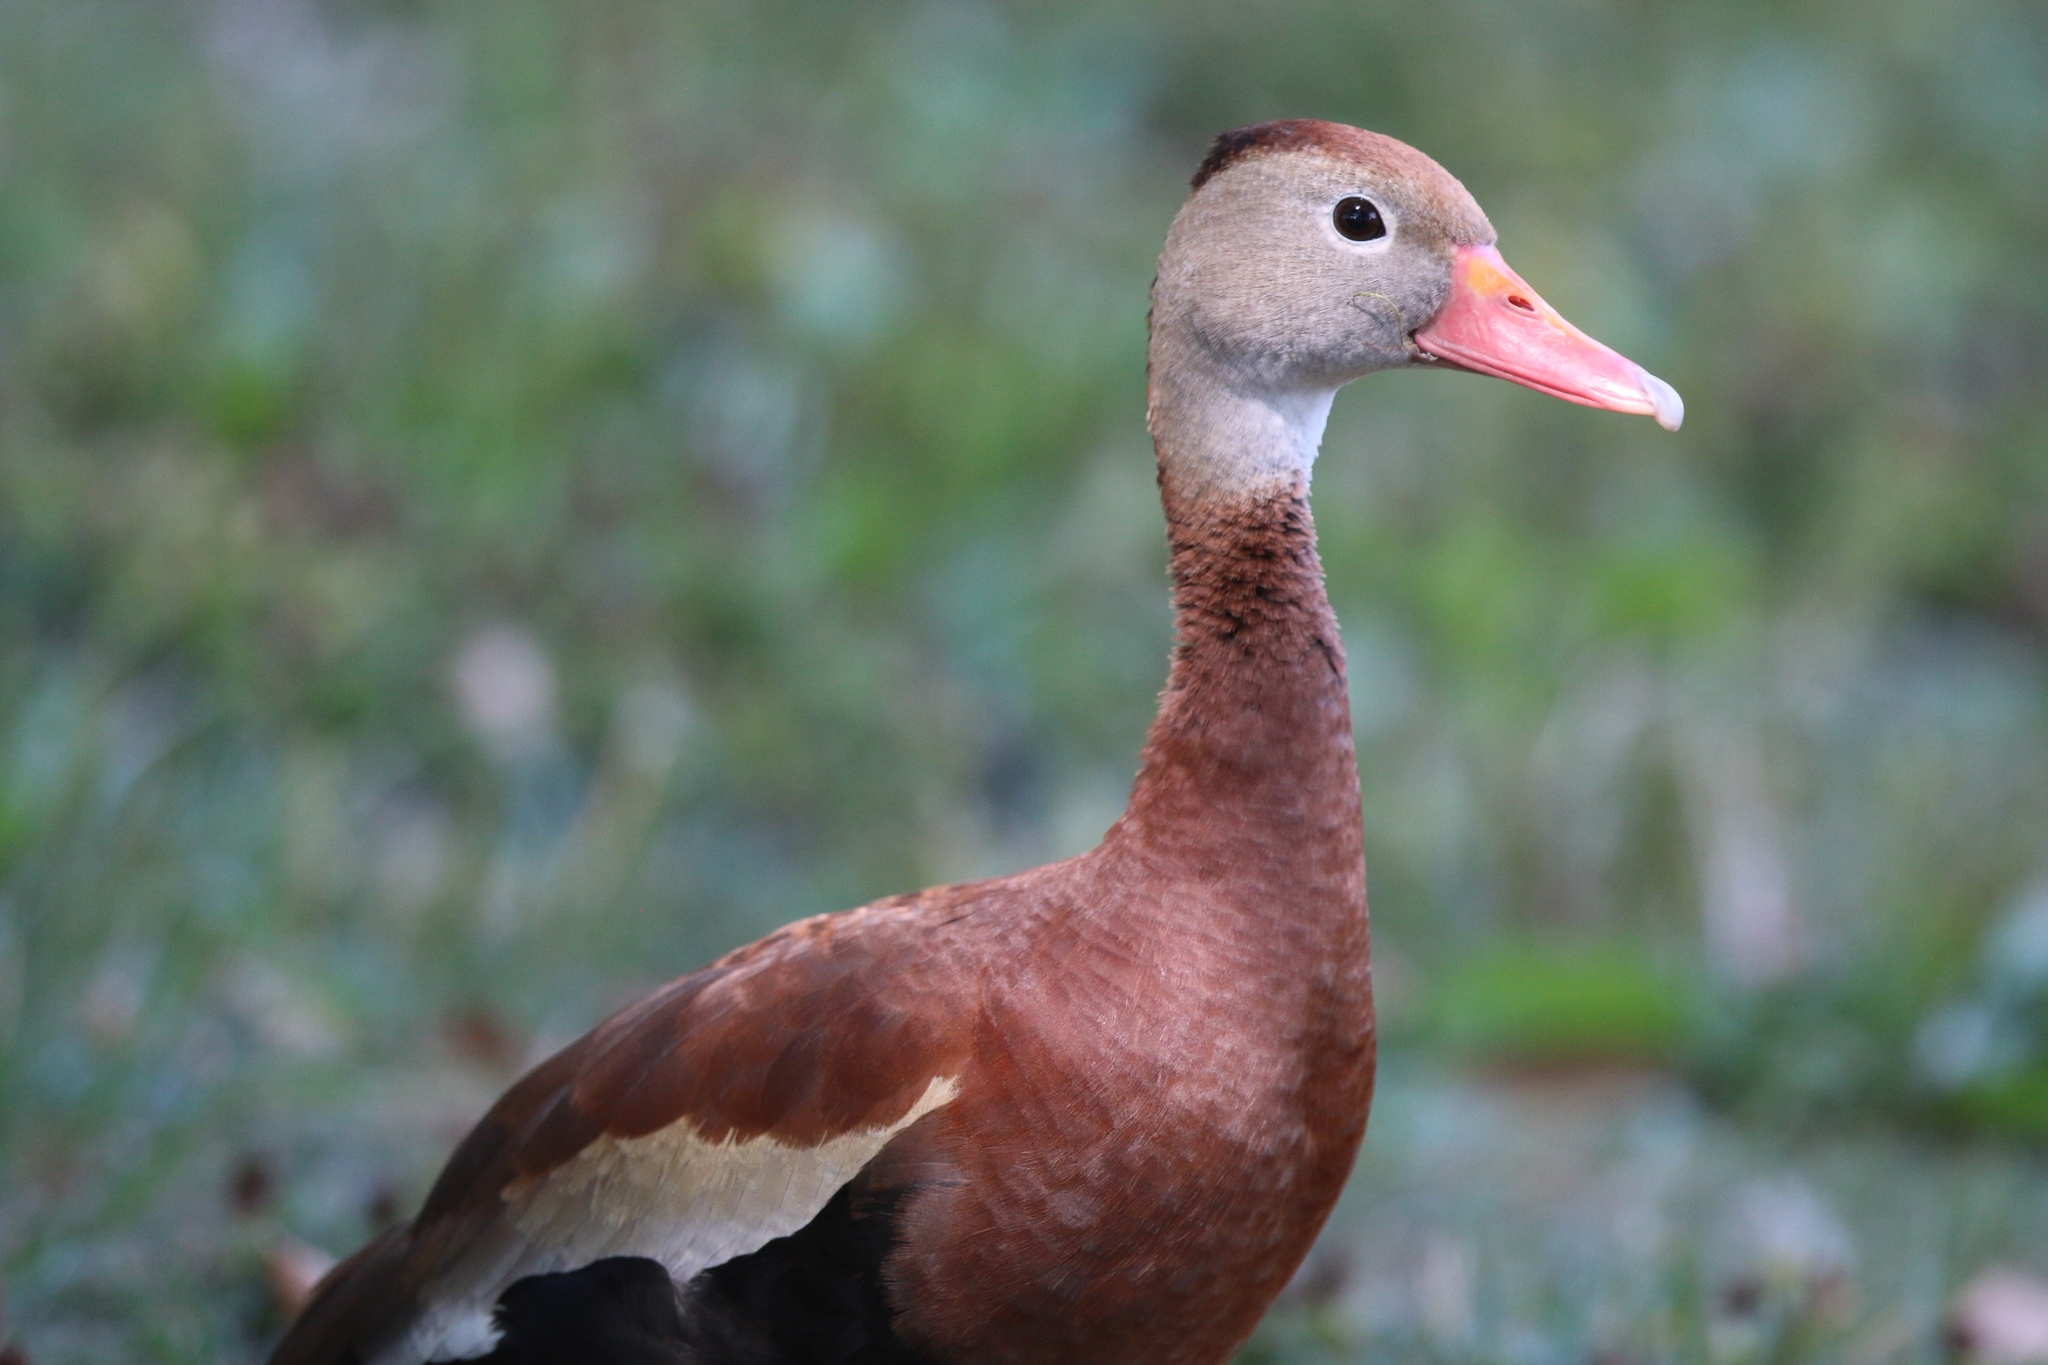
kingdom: Animalia
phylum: Chordata
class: Aves
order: Anseriformes
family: Anatidae
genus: Dendrocygna
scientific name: Dendrocygna autumnalis
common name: Black-bellied whistling duck
